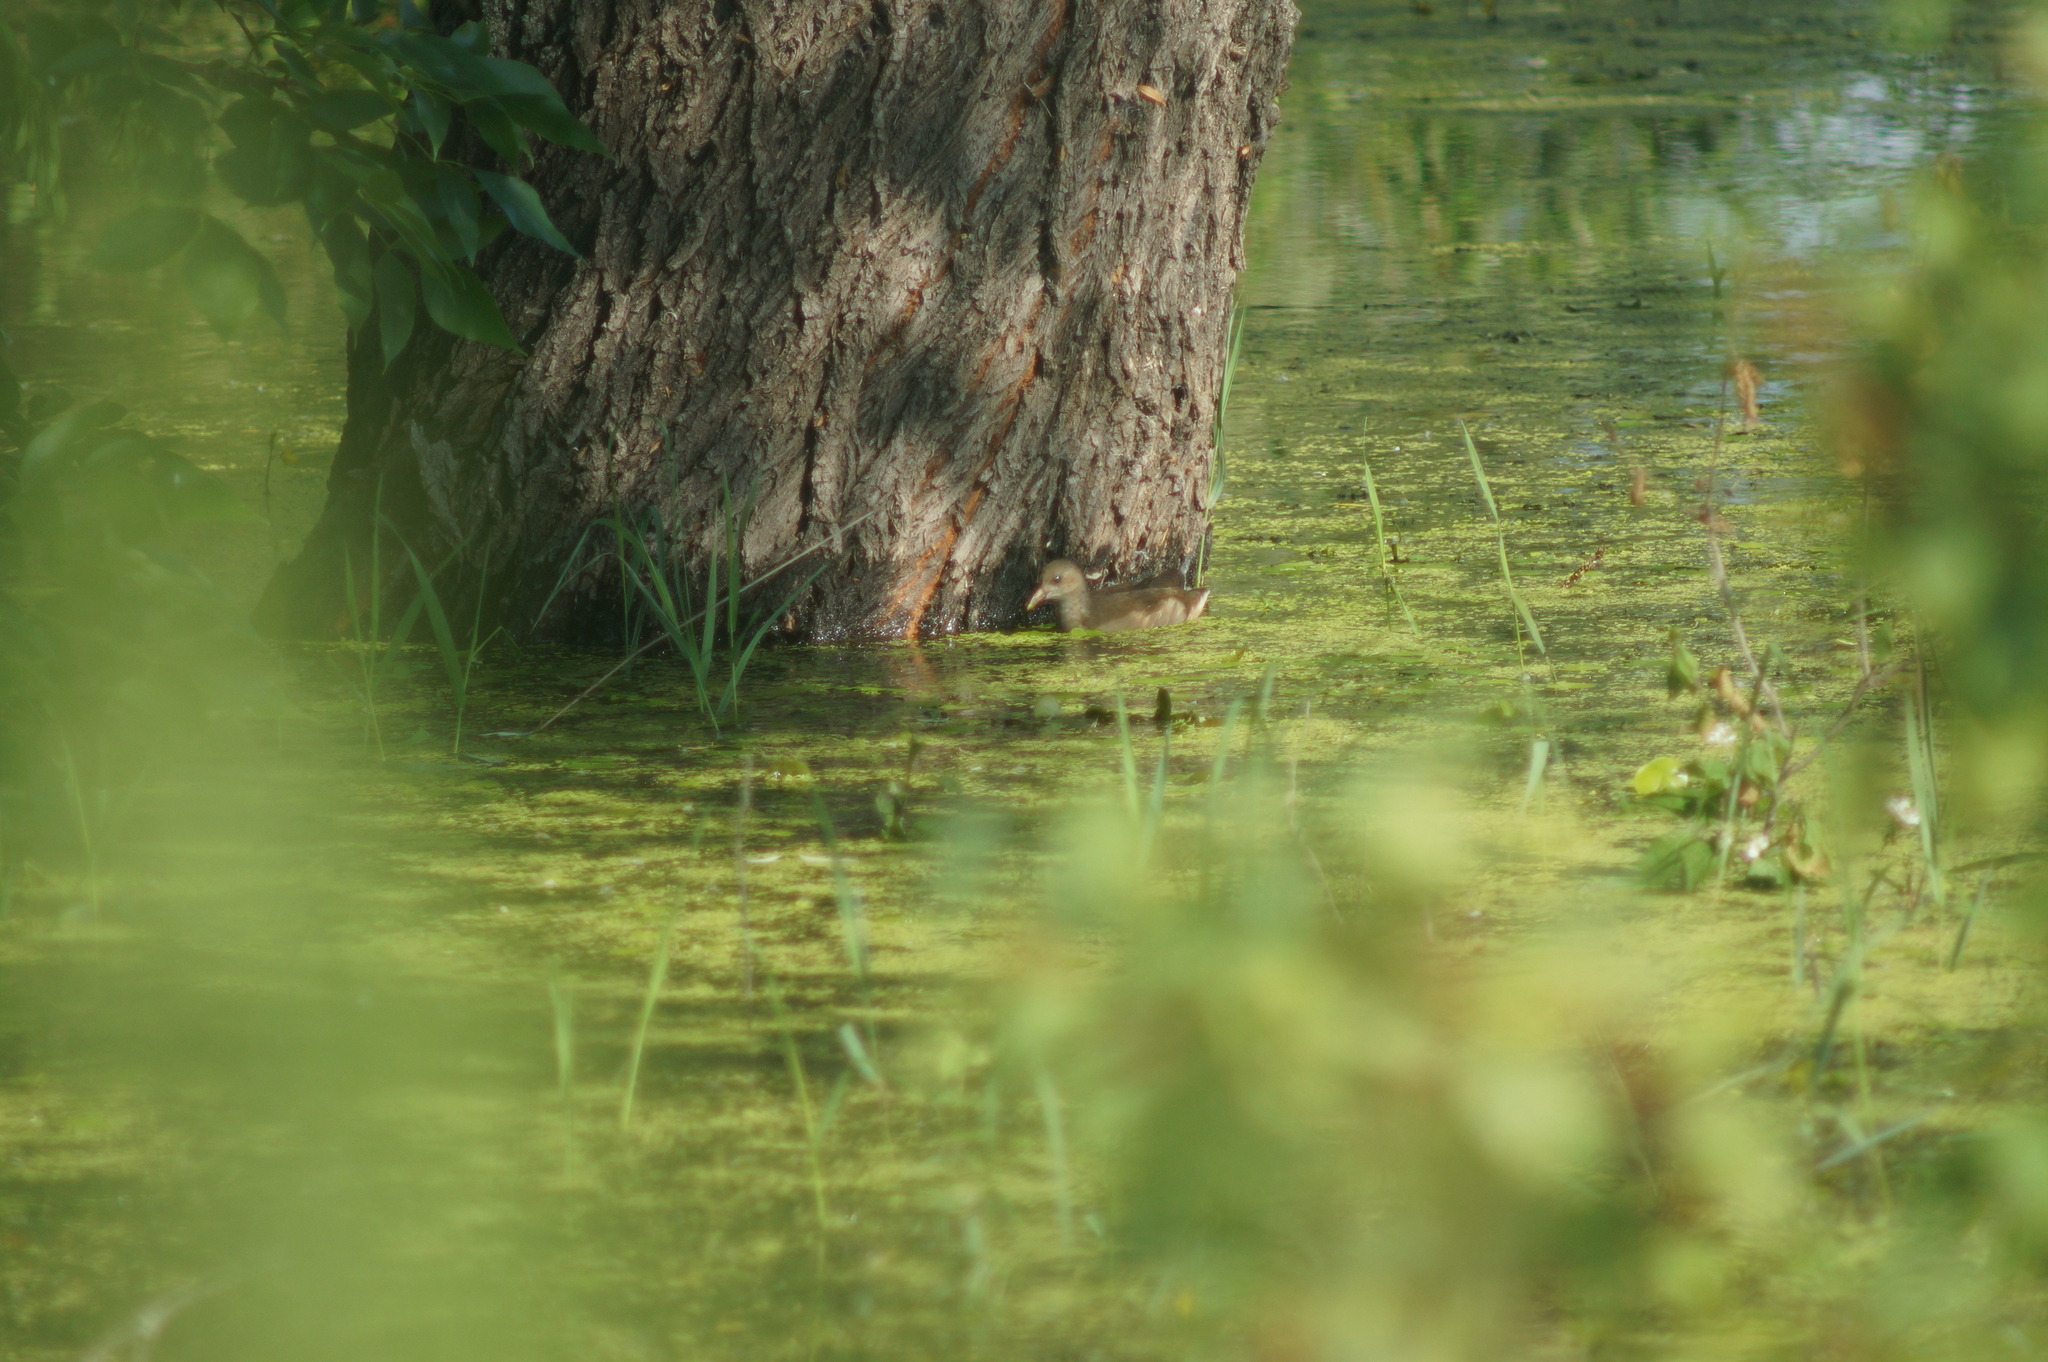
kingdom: Animalia
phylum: Chordata
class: Aves
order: Gruiformes
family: Rallidae
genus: Gallinula
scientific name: Gallinula chloropus
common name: Common moorhen
